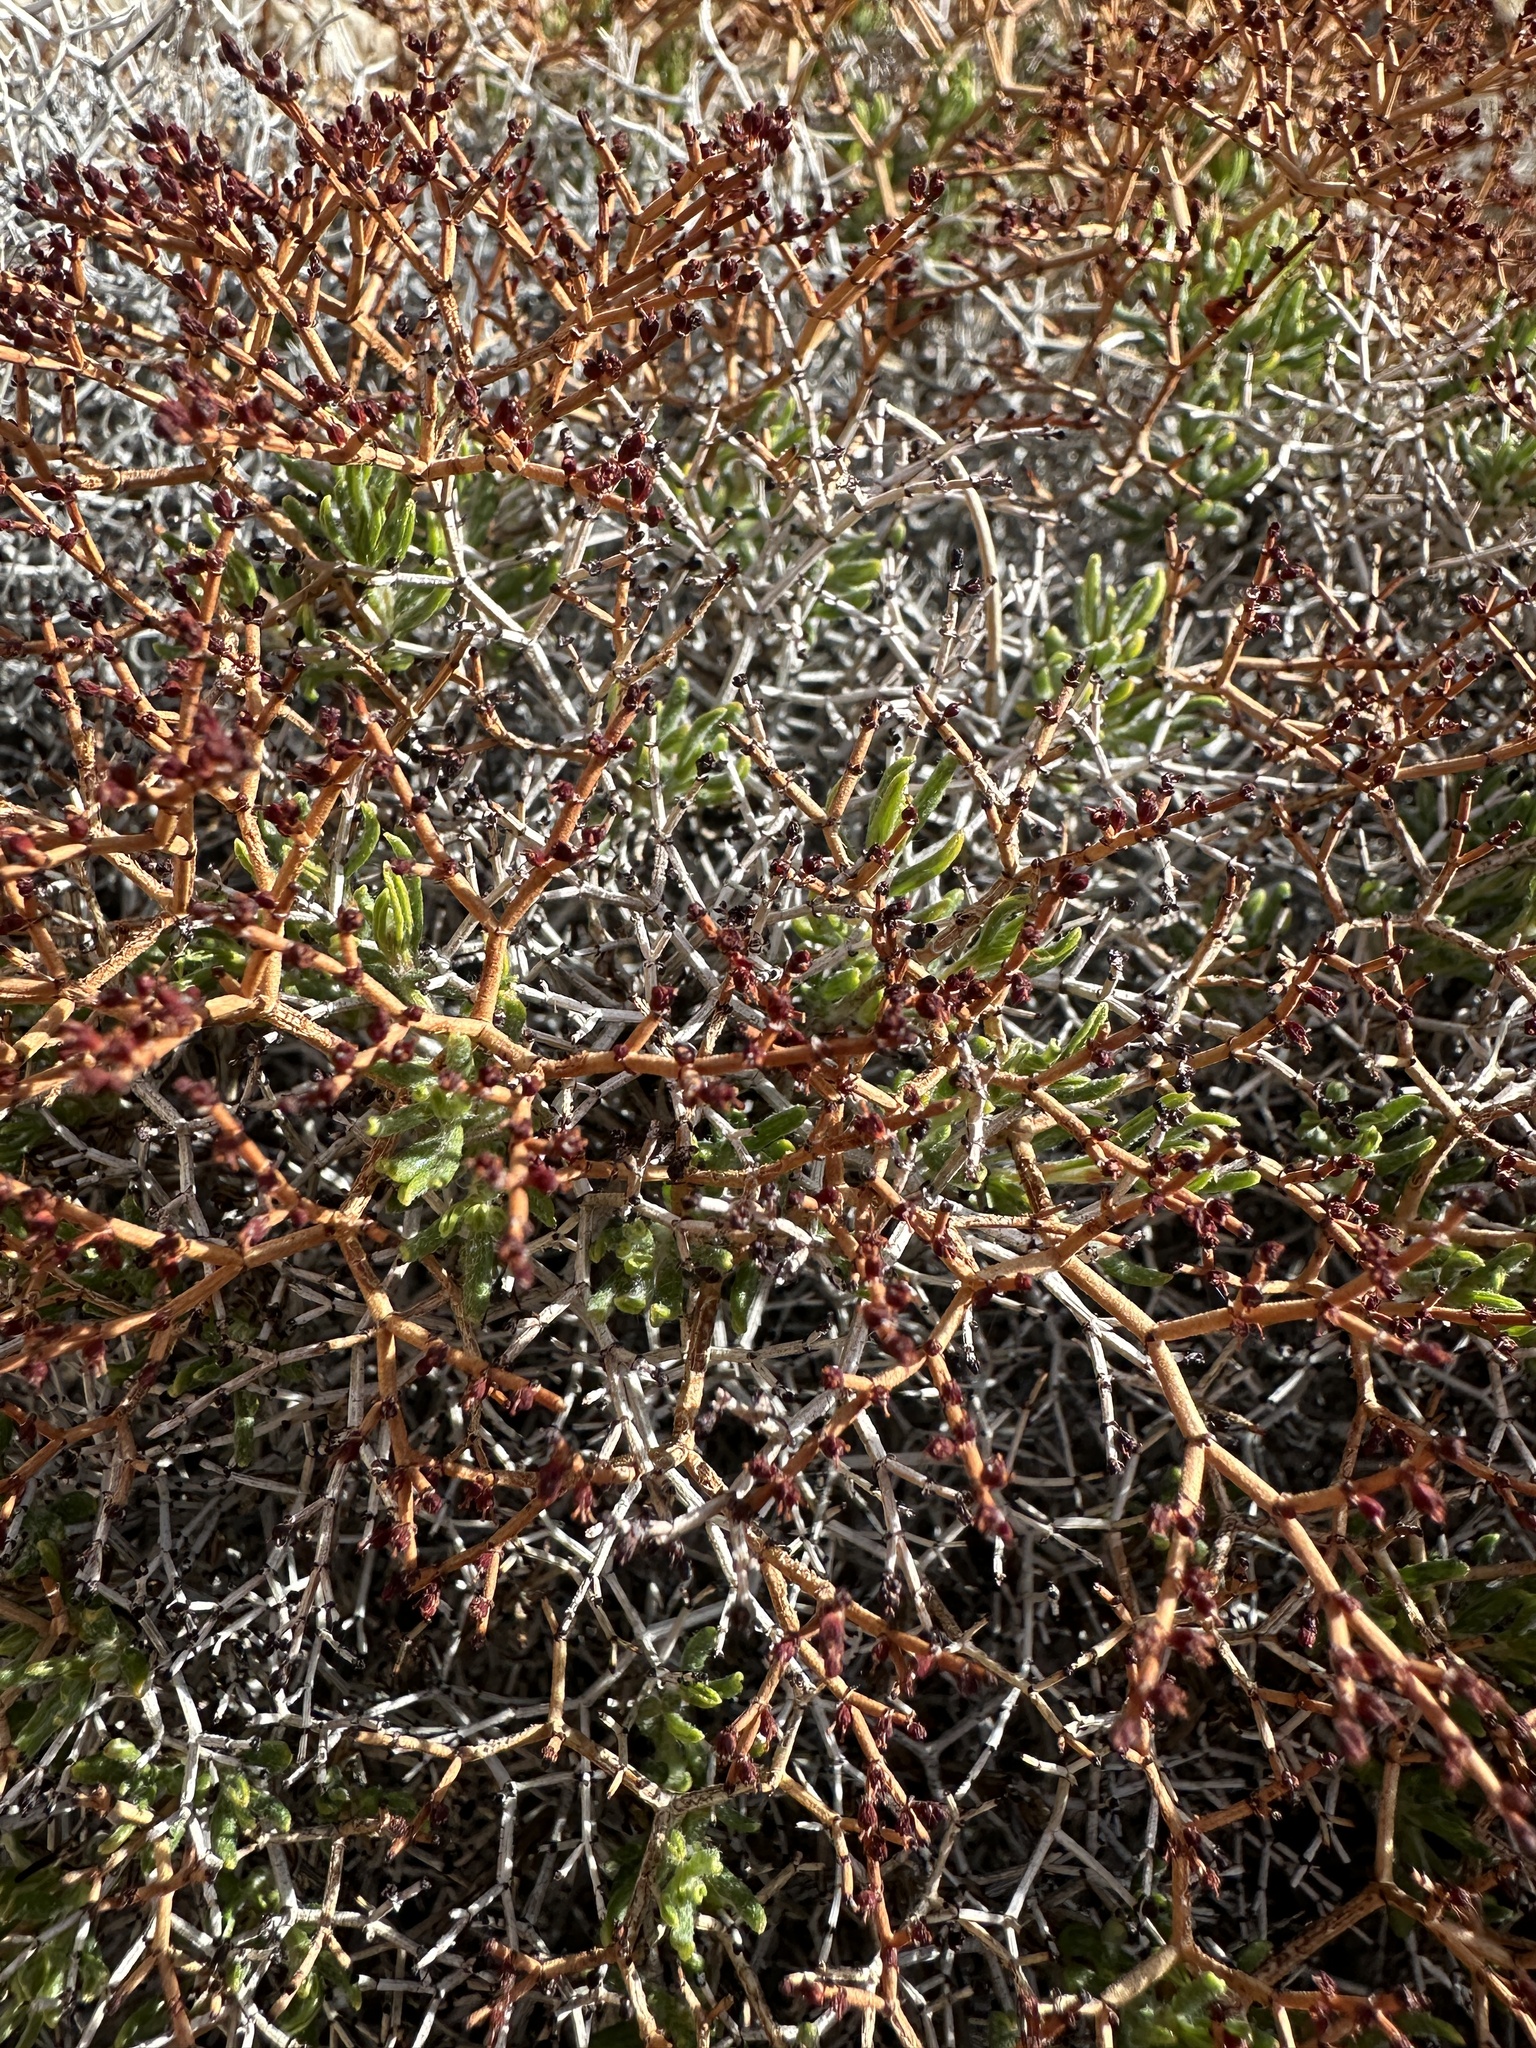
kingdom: Plantae
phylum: Tracheophyta
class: Magnoliopsida
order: Caryophyllales
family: Polygonaceae
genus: Eriogonum
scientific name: Eriogonum heermannii
